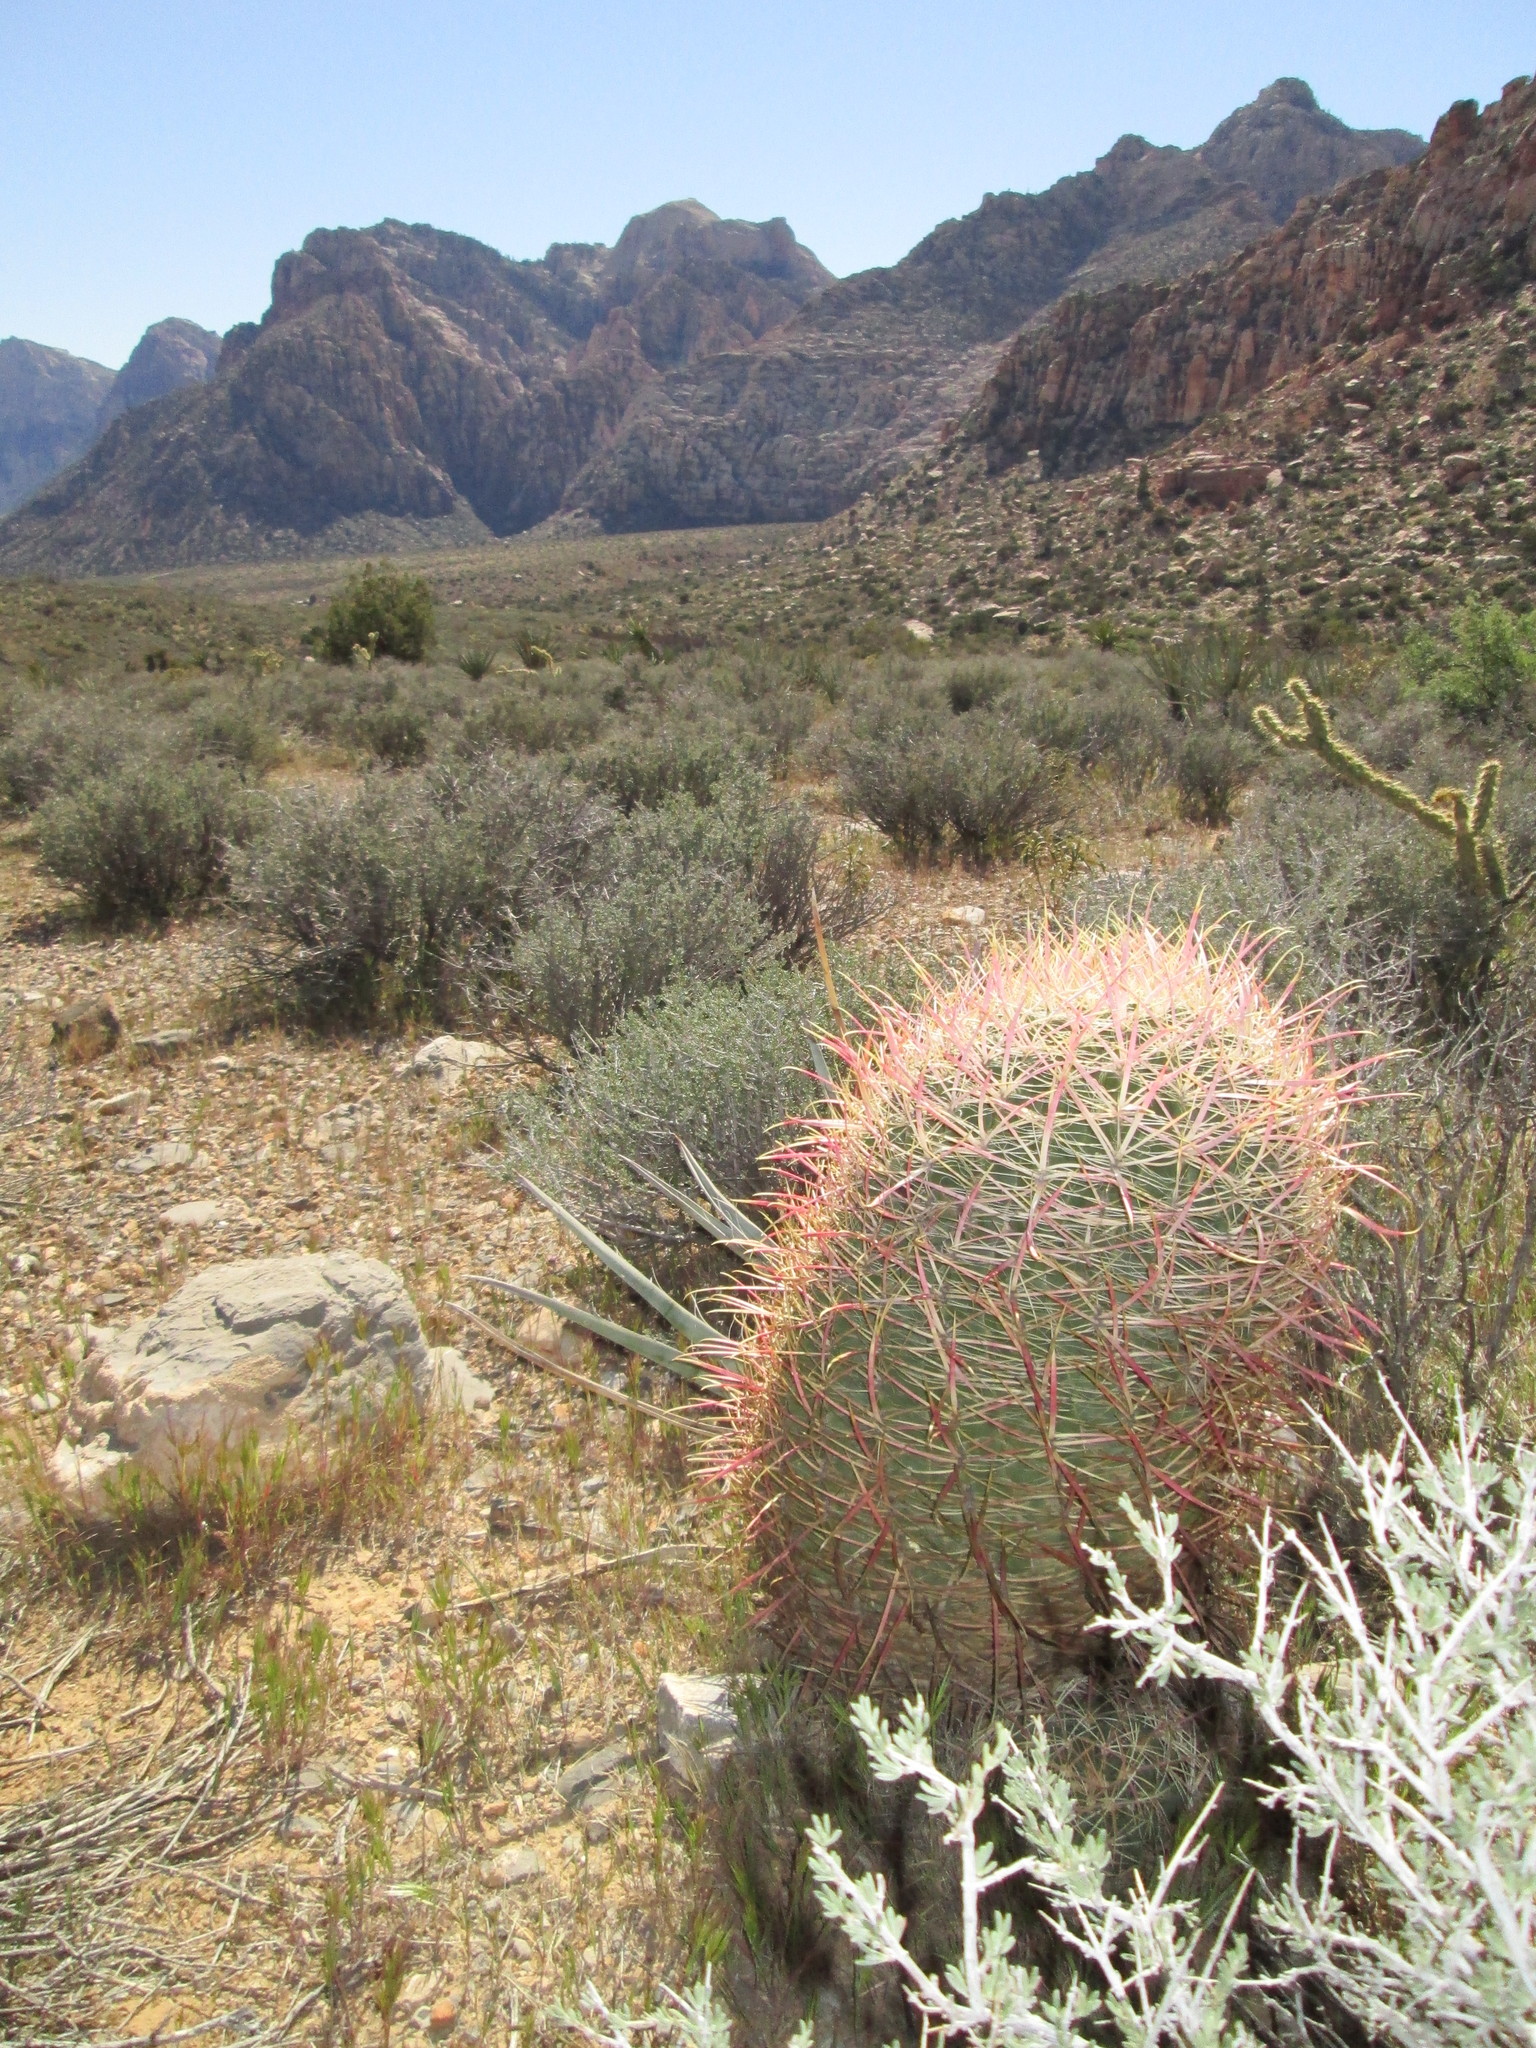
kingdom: Plantae
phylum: Tracheophyta
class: Magnoliopsida
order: Caryophyllales
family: Cactaceae
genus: Ferocactus
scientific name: Ferocactus cylindraceus
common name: California barrel cactus
